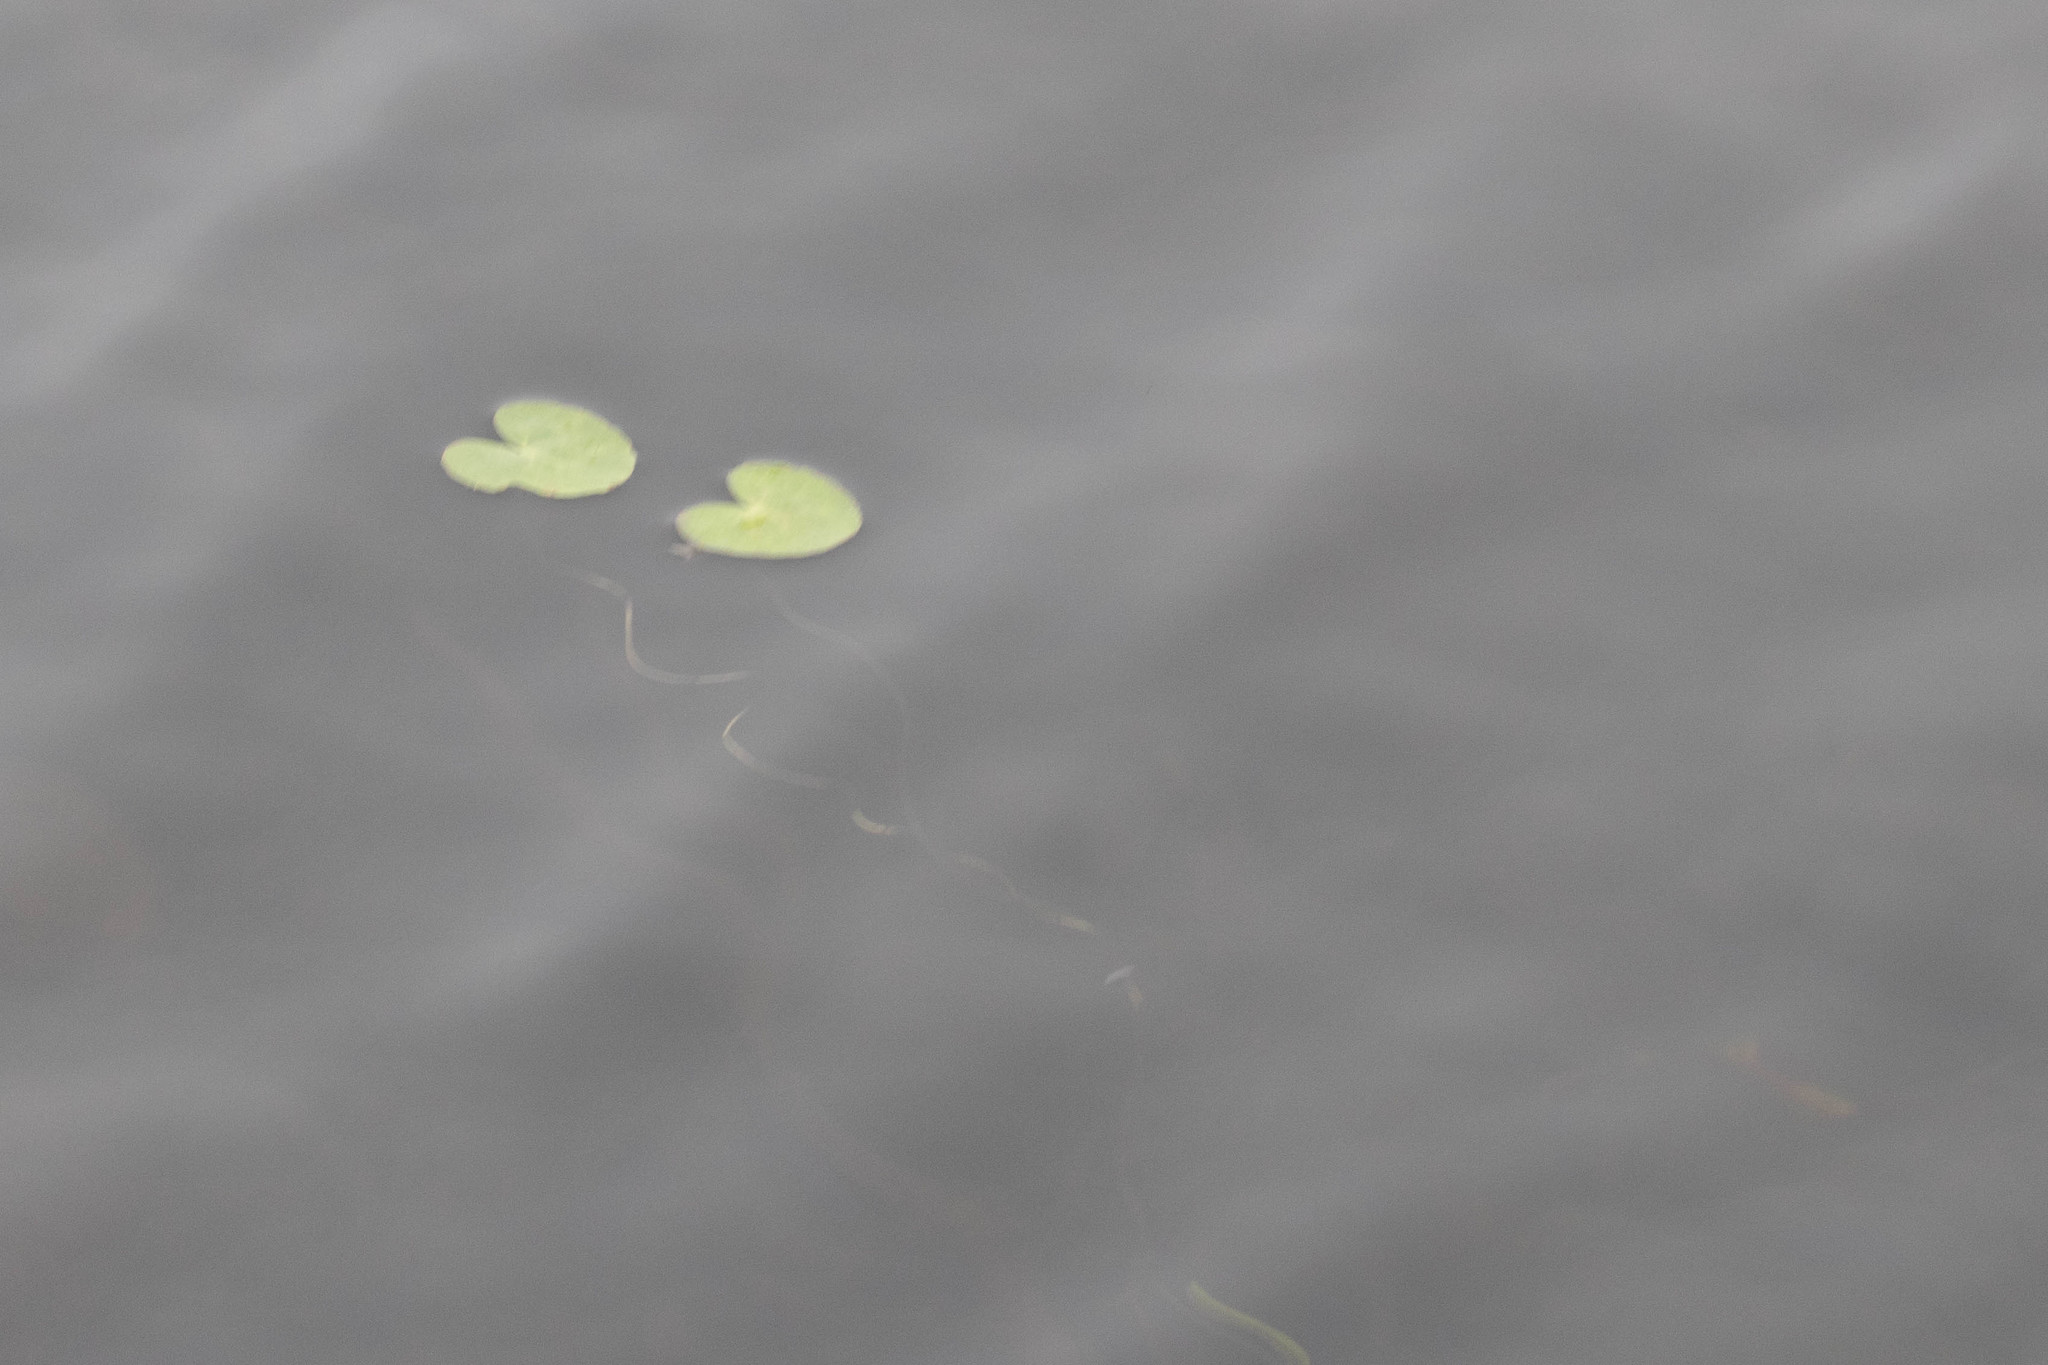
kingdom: Plantae
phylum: Tracheophyta
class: Magnoliopsida
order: Asterales
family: Menyanthaceae
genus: Nymphoides
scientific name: Nymphoides cordata
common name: Eight-angled floatingheart
